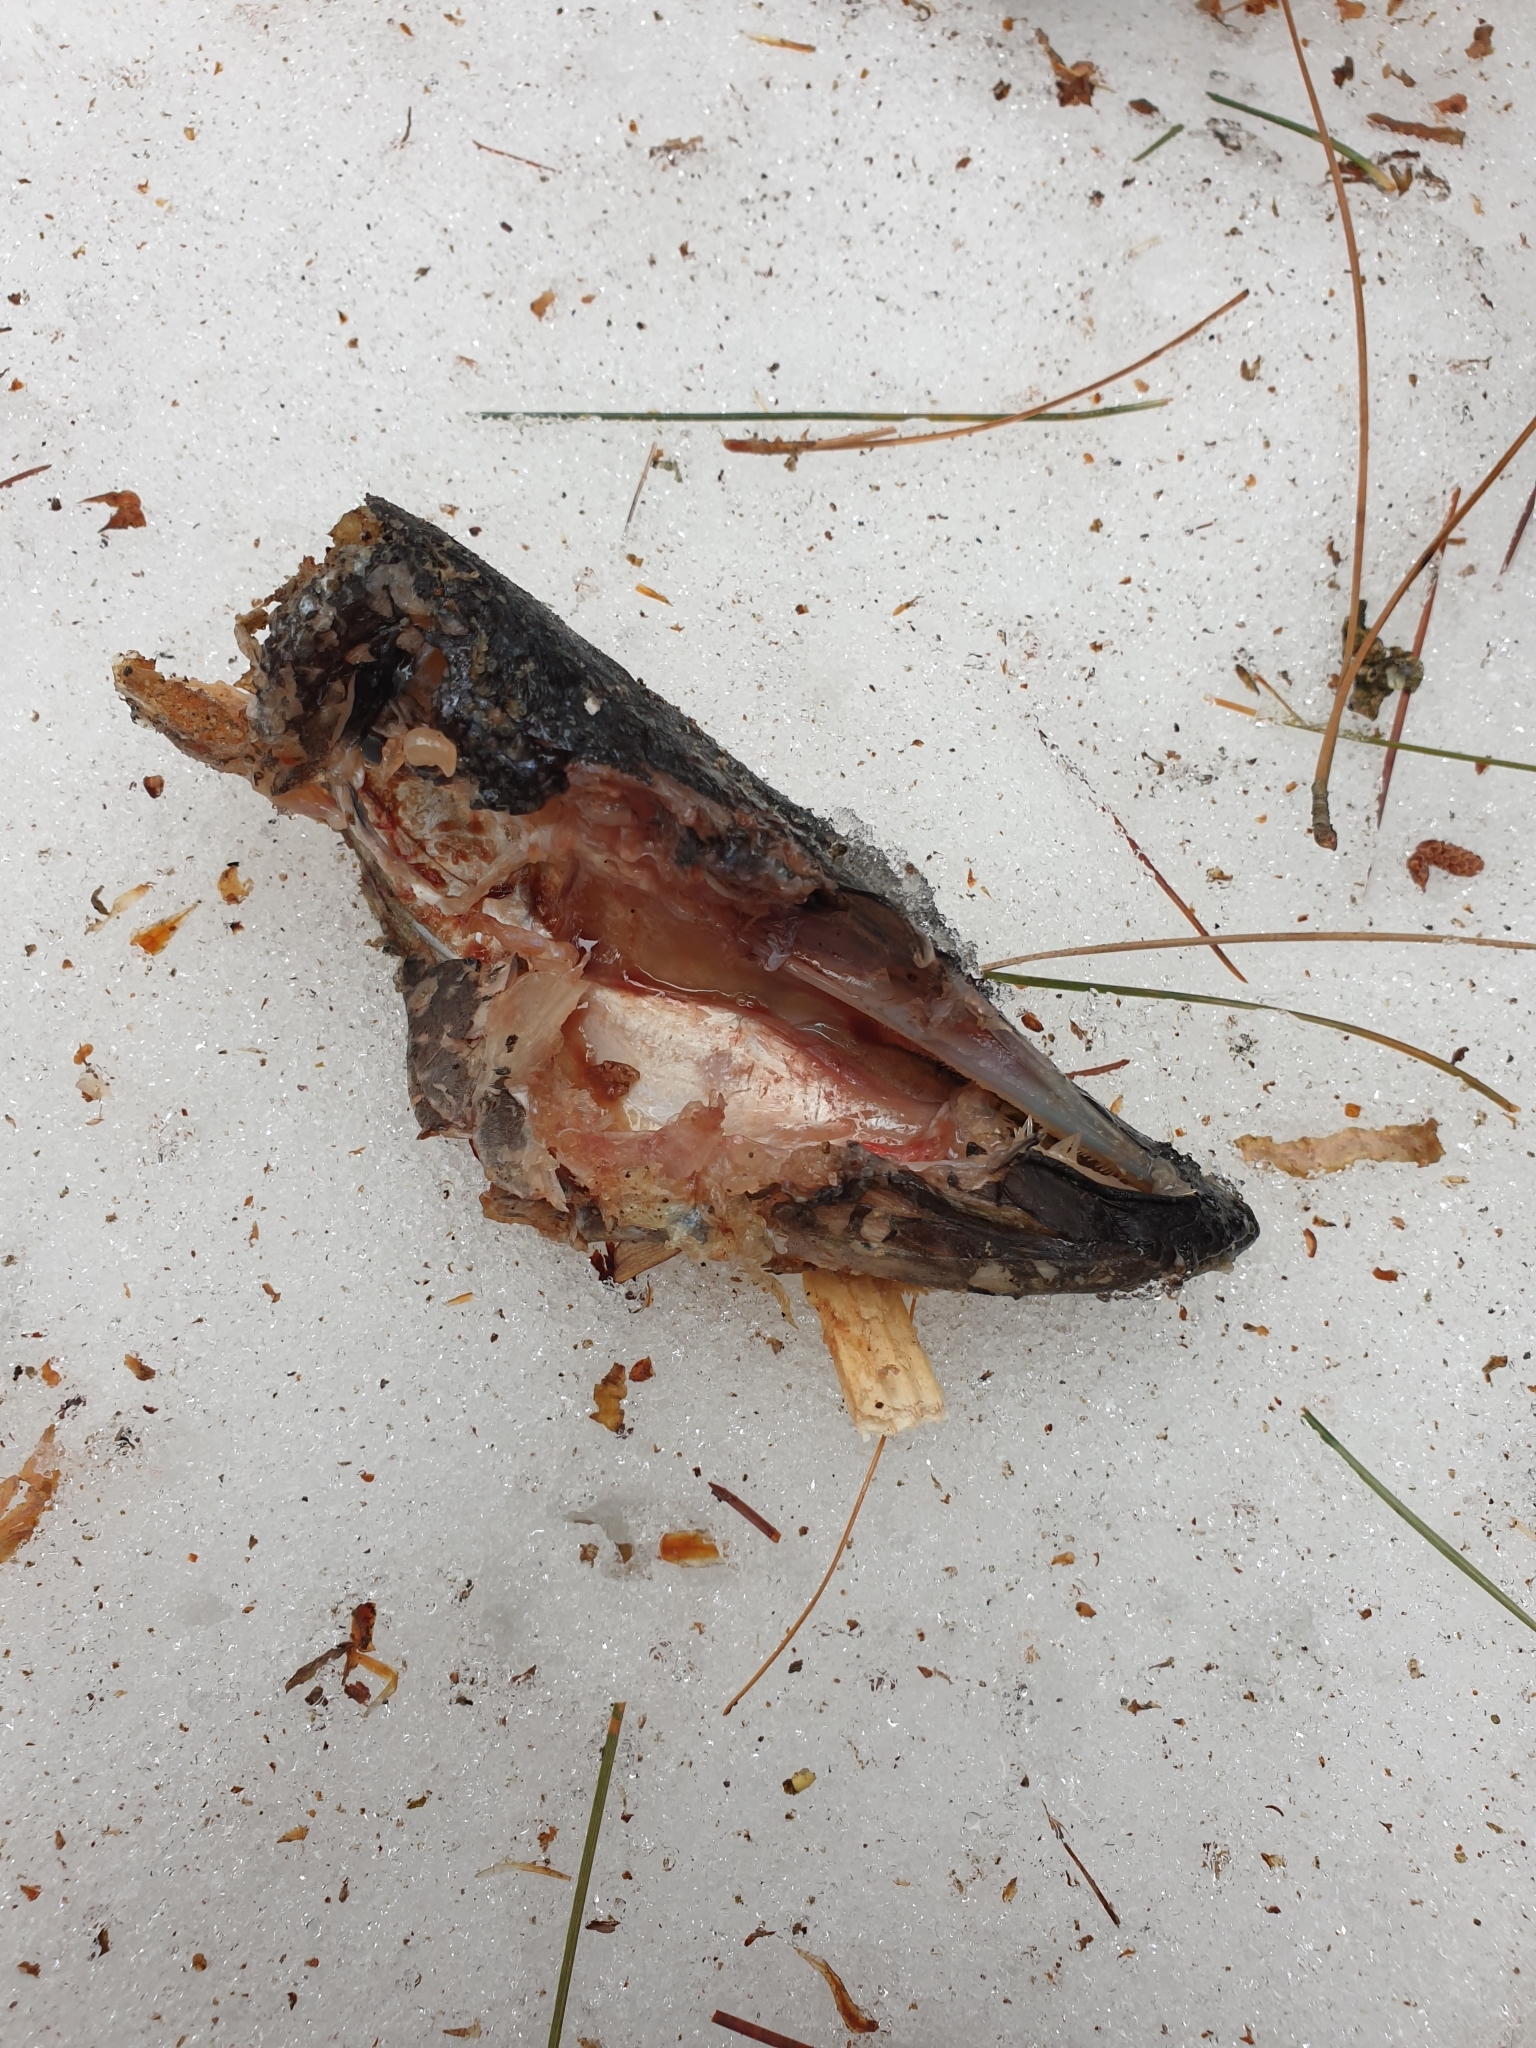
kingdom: Animalia
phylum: Chordata
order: Esociformes
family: Esocidae
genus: Esox
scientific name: Esox lucius
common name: Northern pike
